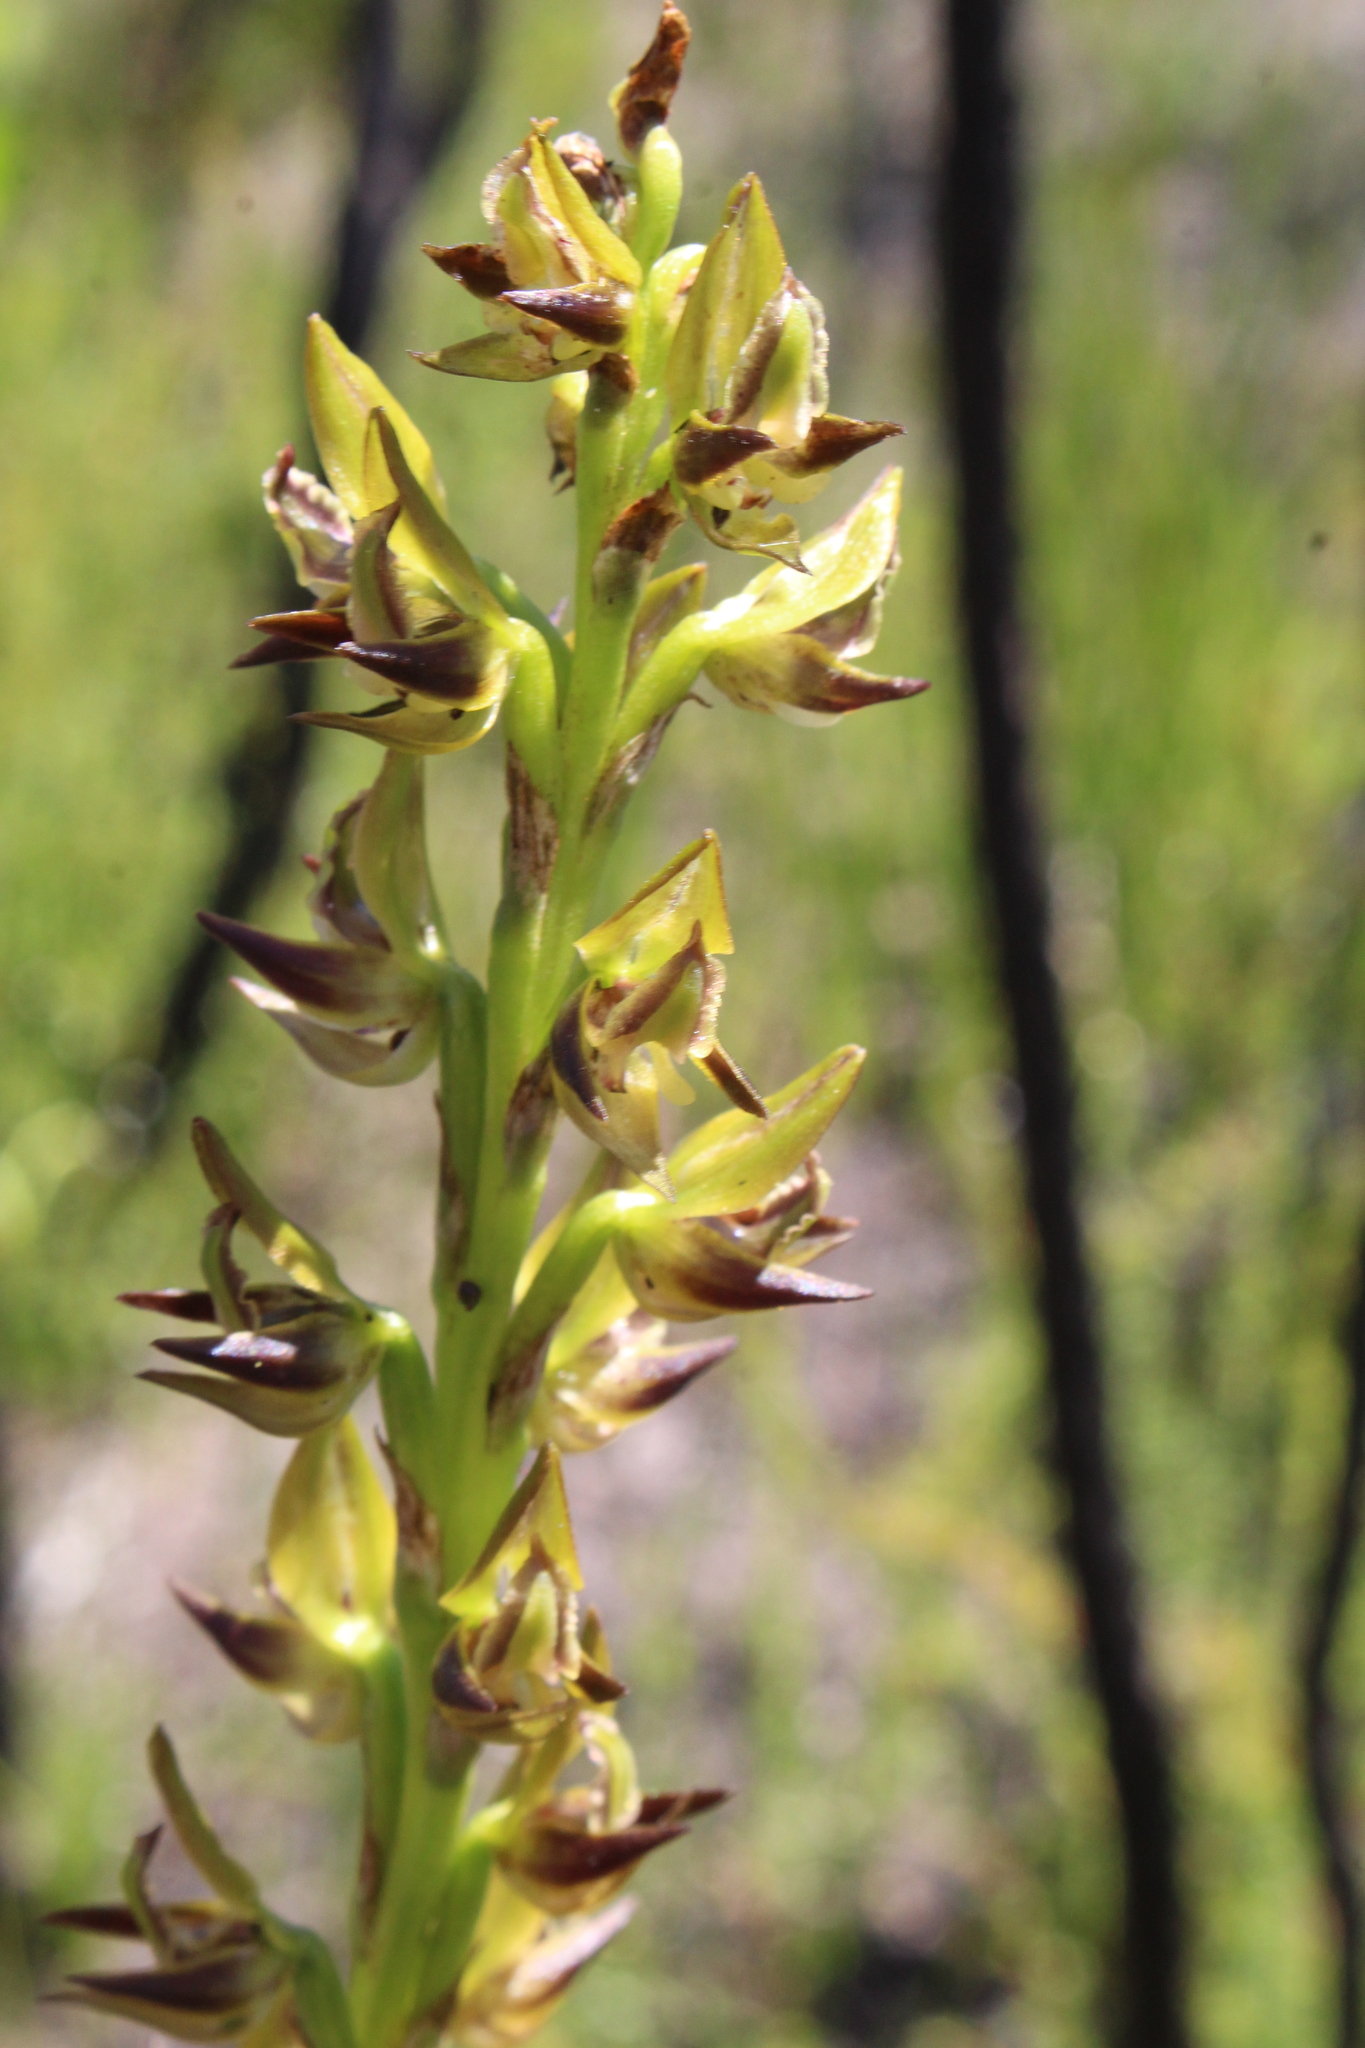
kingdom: Plantae
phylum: Tracheophyta
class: Liliopsida
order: Asparagales
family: Orchidaceae
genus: Prasophyllum
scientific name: Prasophyllum regium
